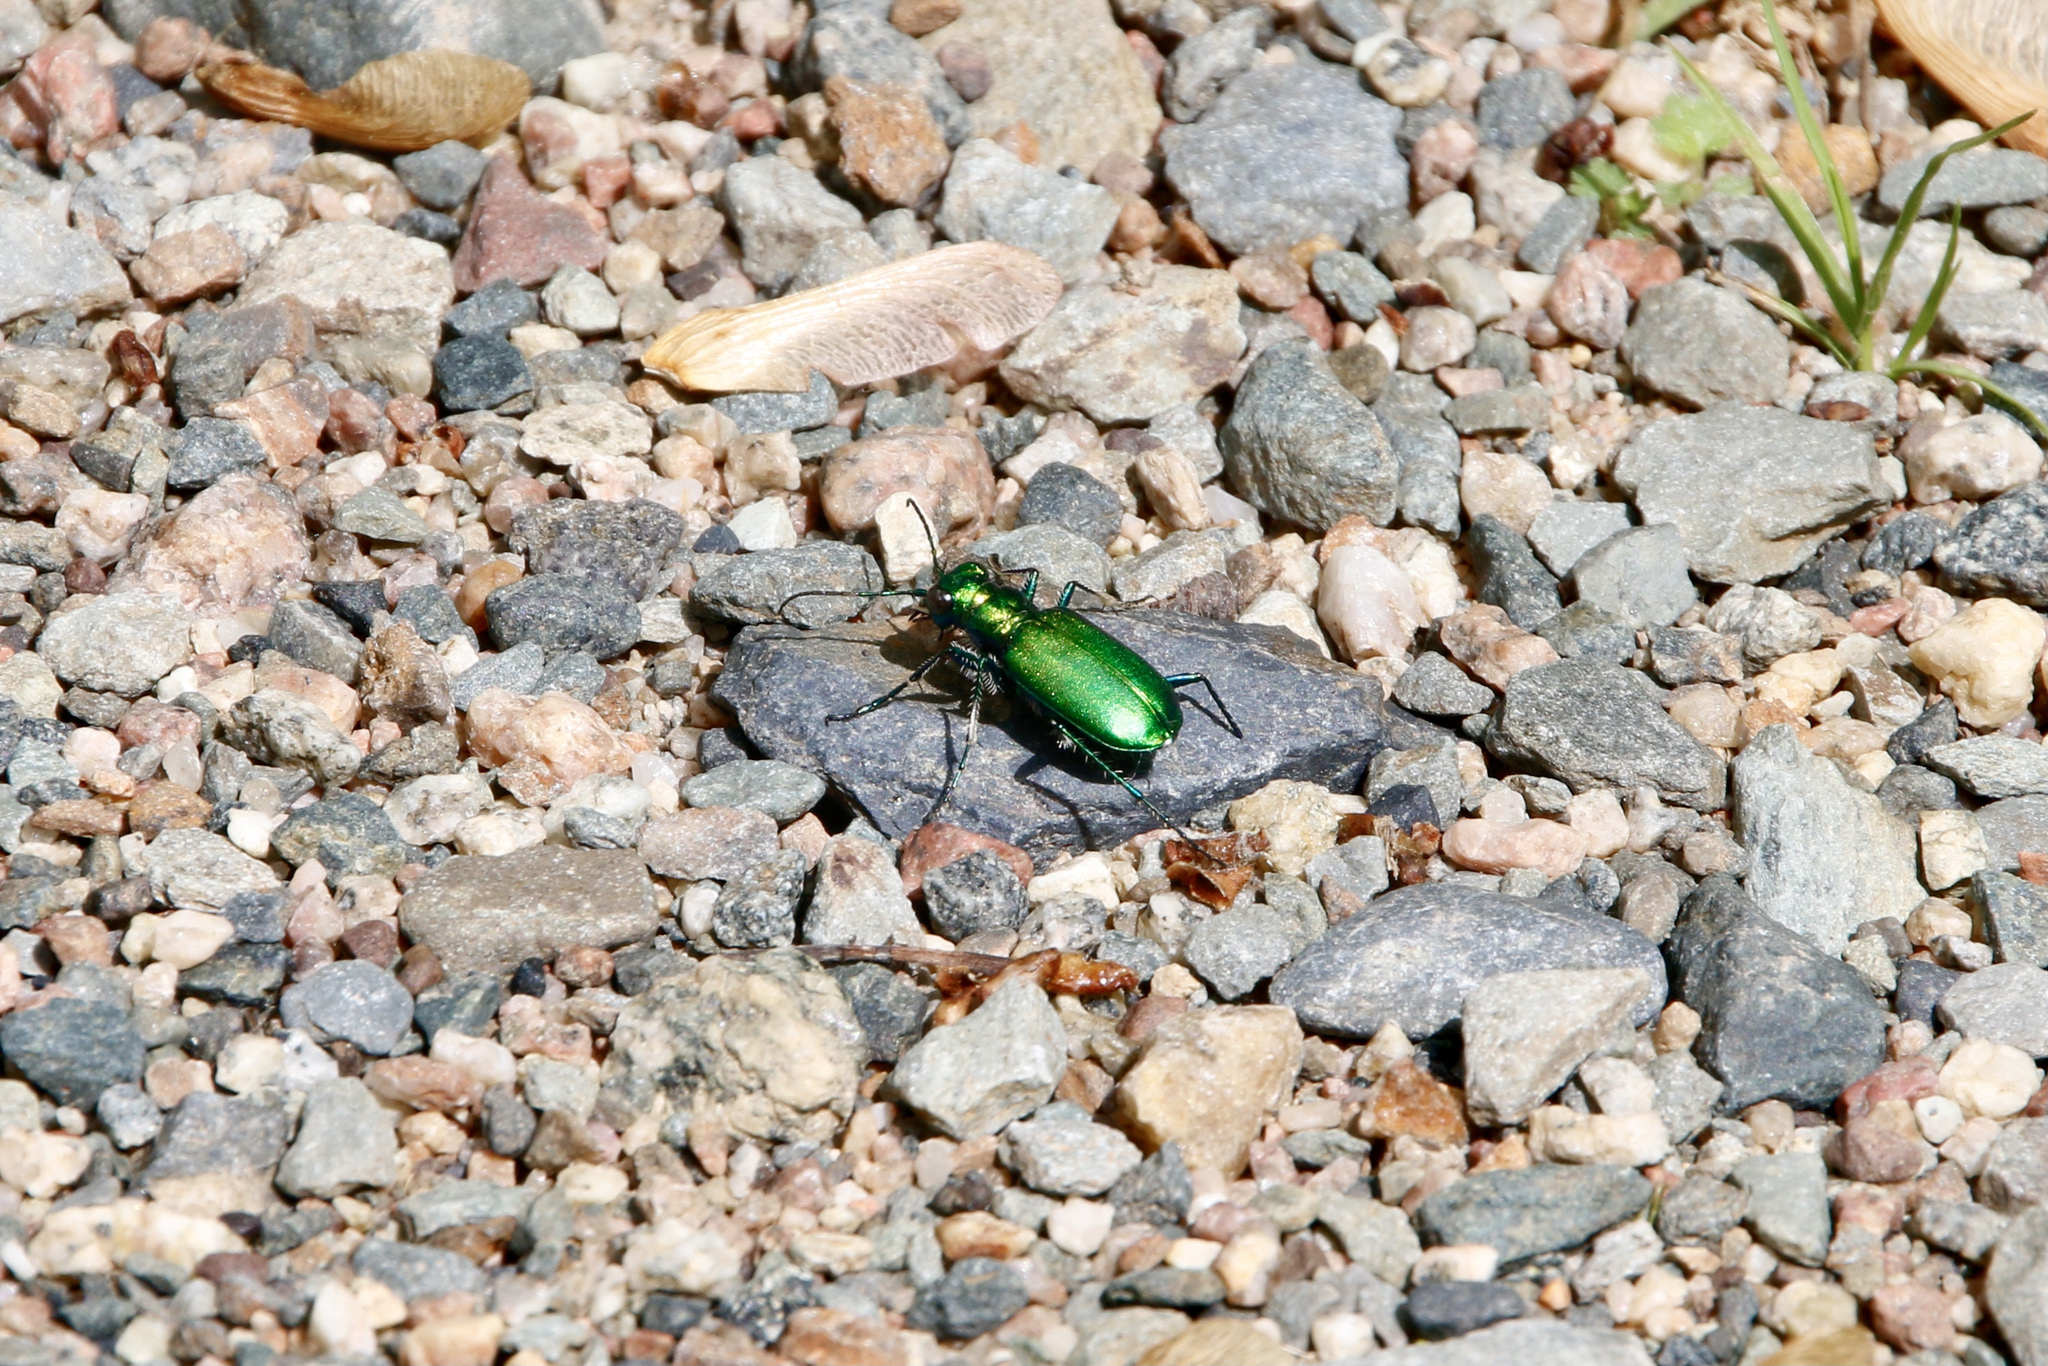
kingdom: Animalia
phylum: Arthropoda
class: Insecta
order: Coleoptera
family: Carabidae
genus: Cicindela
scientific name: Cicindela denikei
